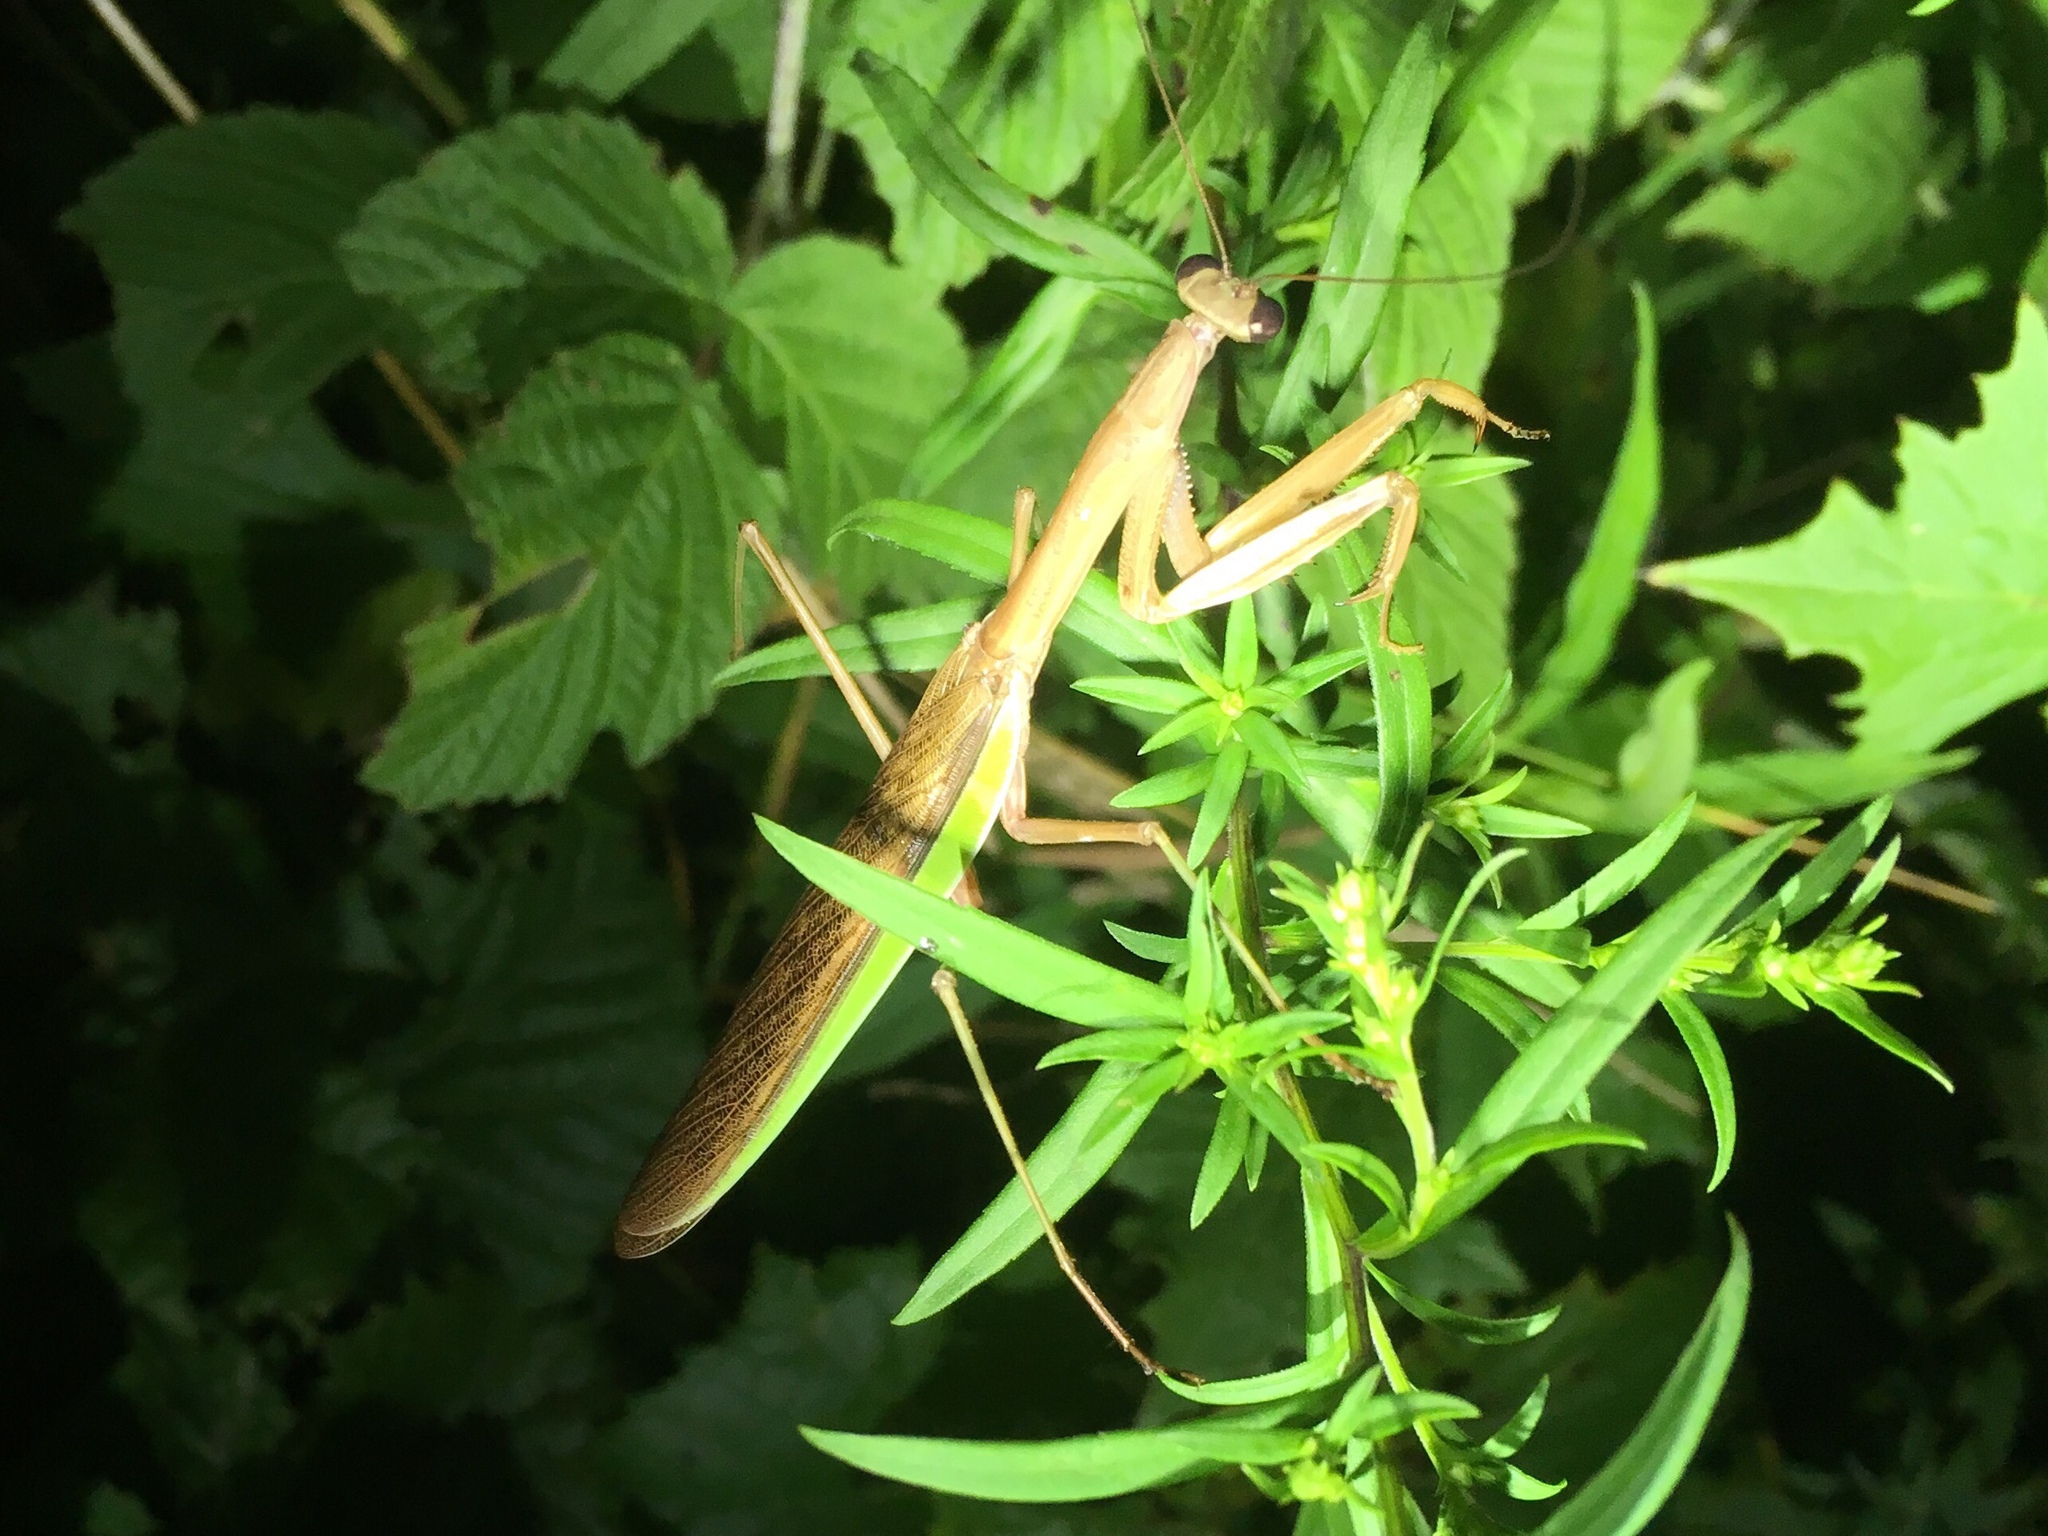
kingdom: Animalia
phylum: Arthropoda
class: Insecta
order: Mantodea
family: Mantidae
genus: Tenodera
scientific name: Tenodera sinensis
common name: Chinese mantis
